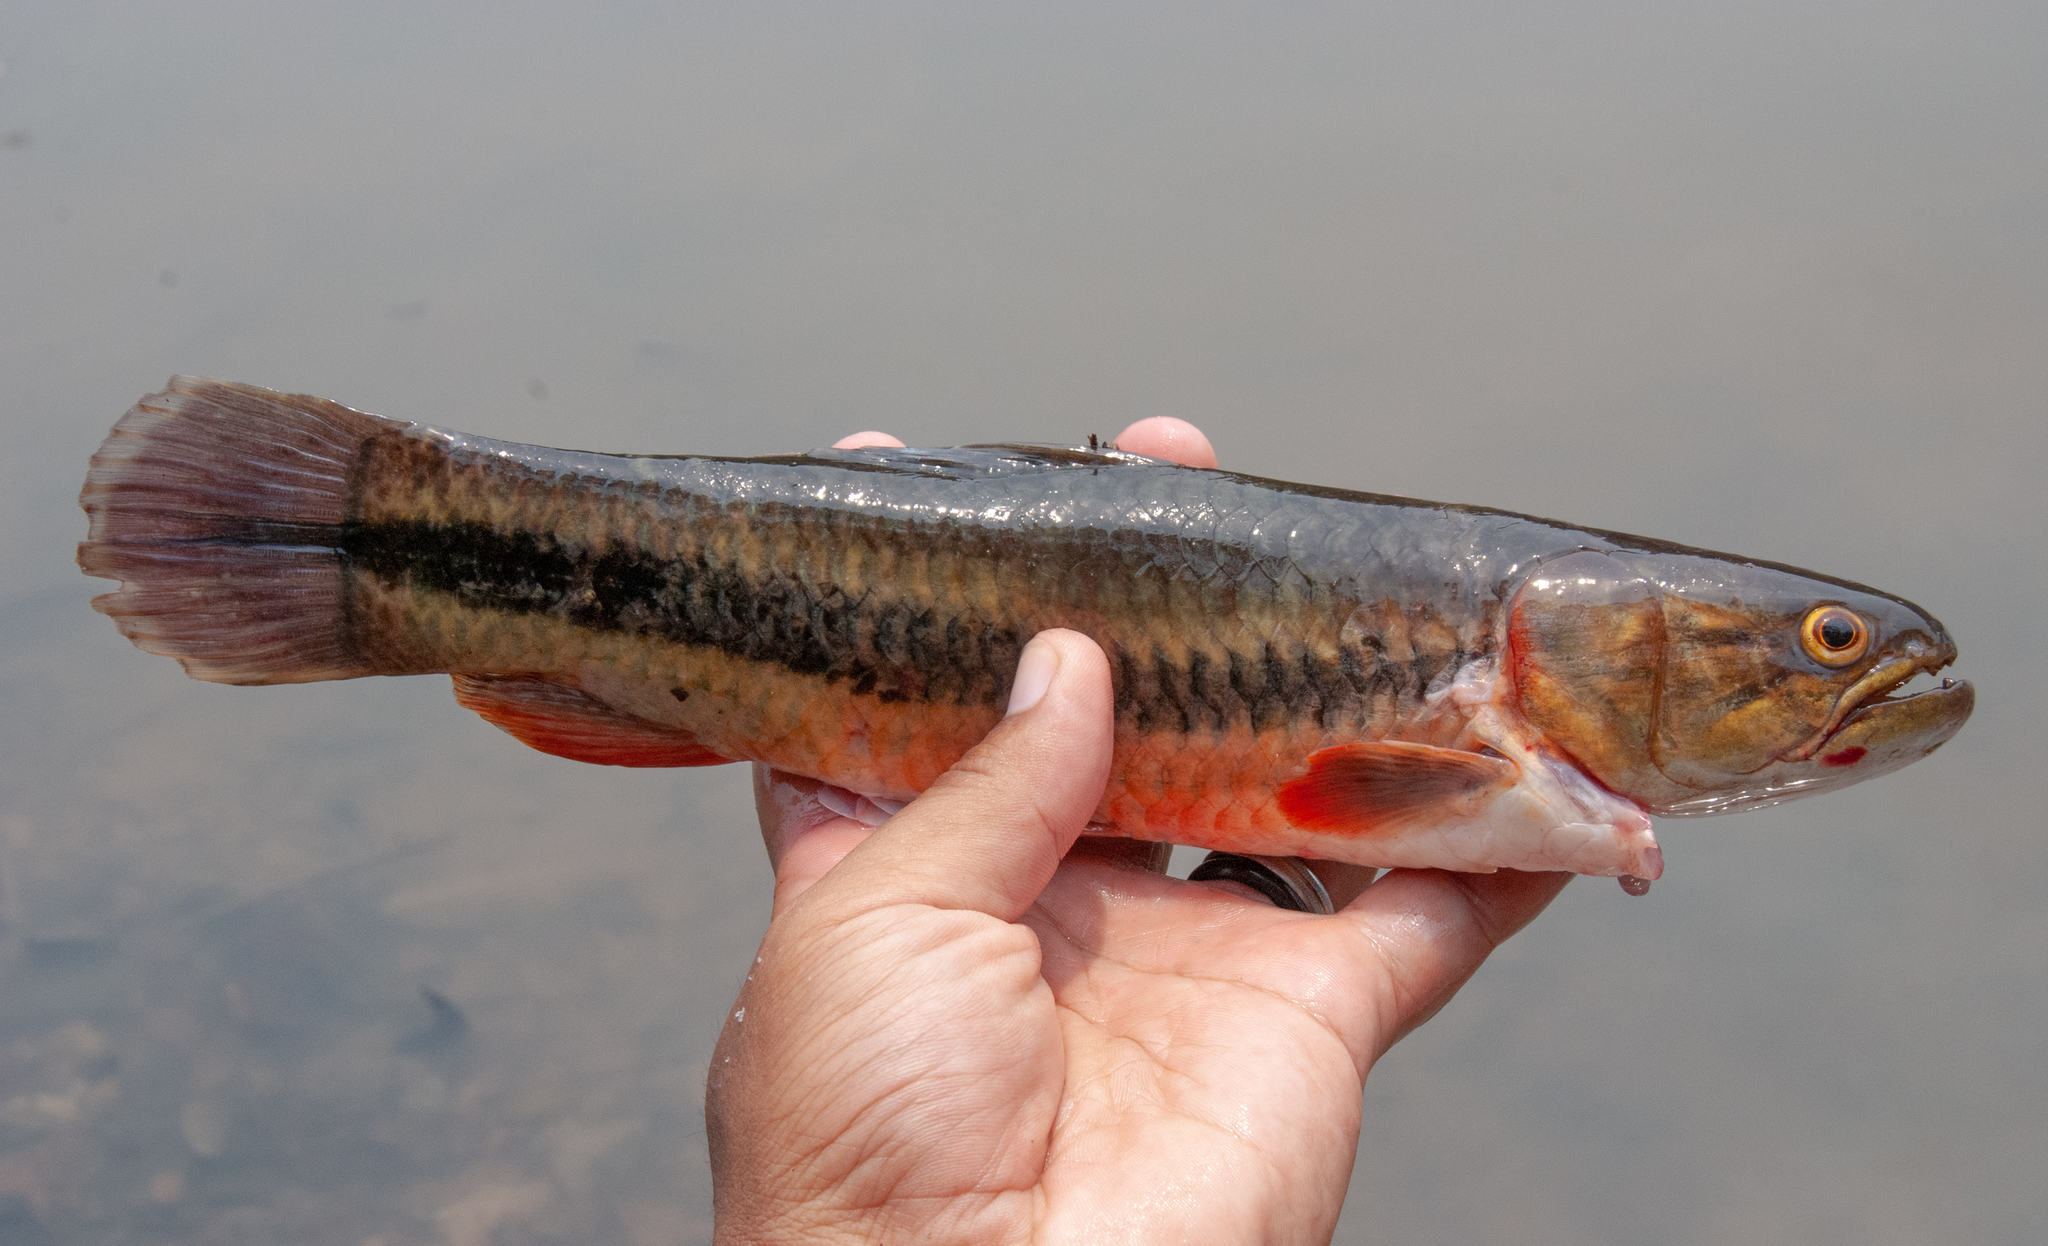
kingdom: Animalia
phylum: Chordata
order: Characiformes
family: Erythrinidae
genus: Hoplerythrinus
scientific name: Hoplerythrinus unitaeniatus
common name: Aimara
